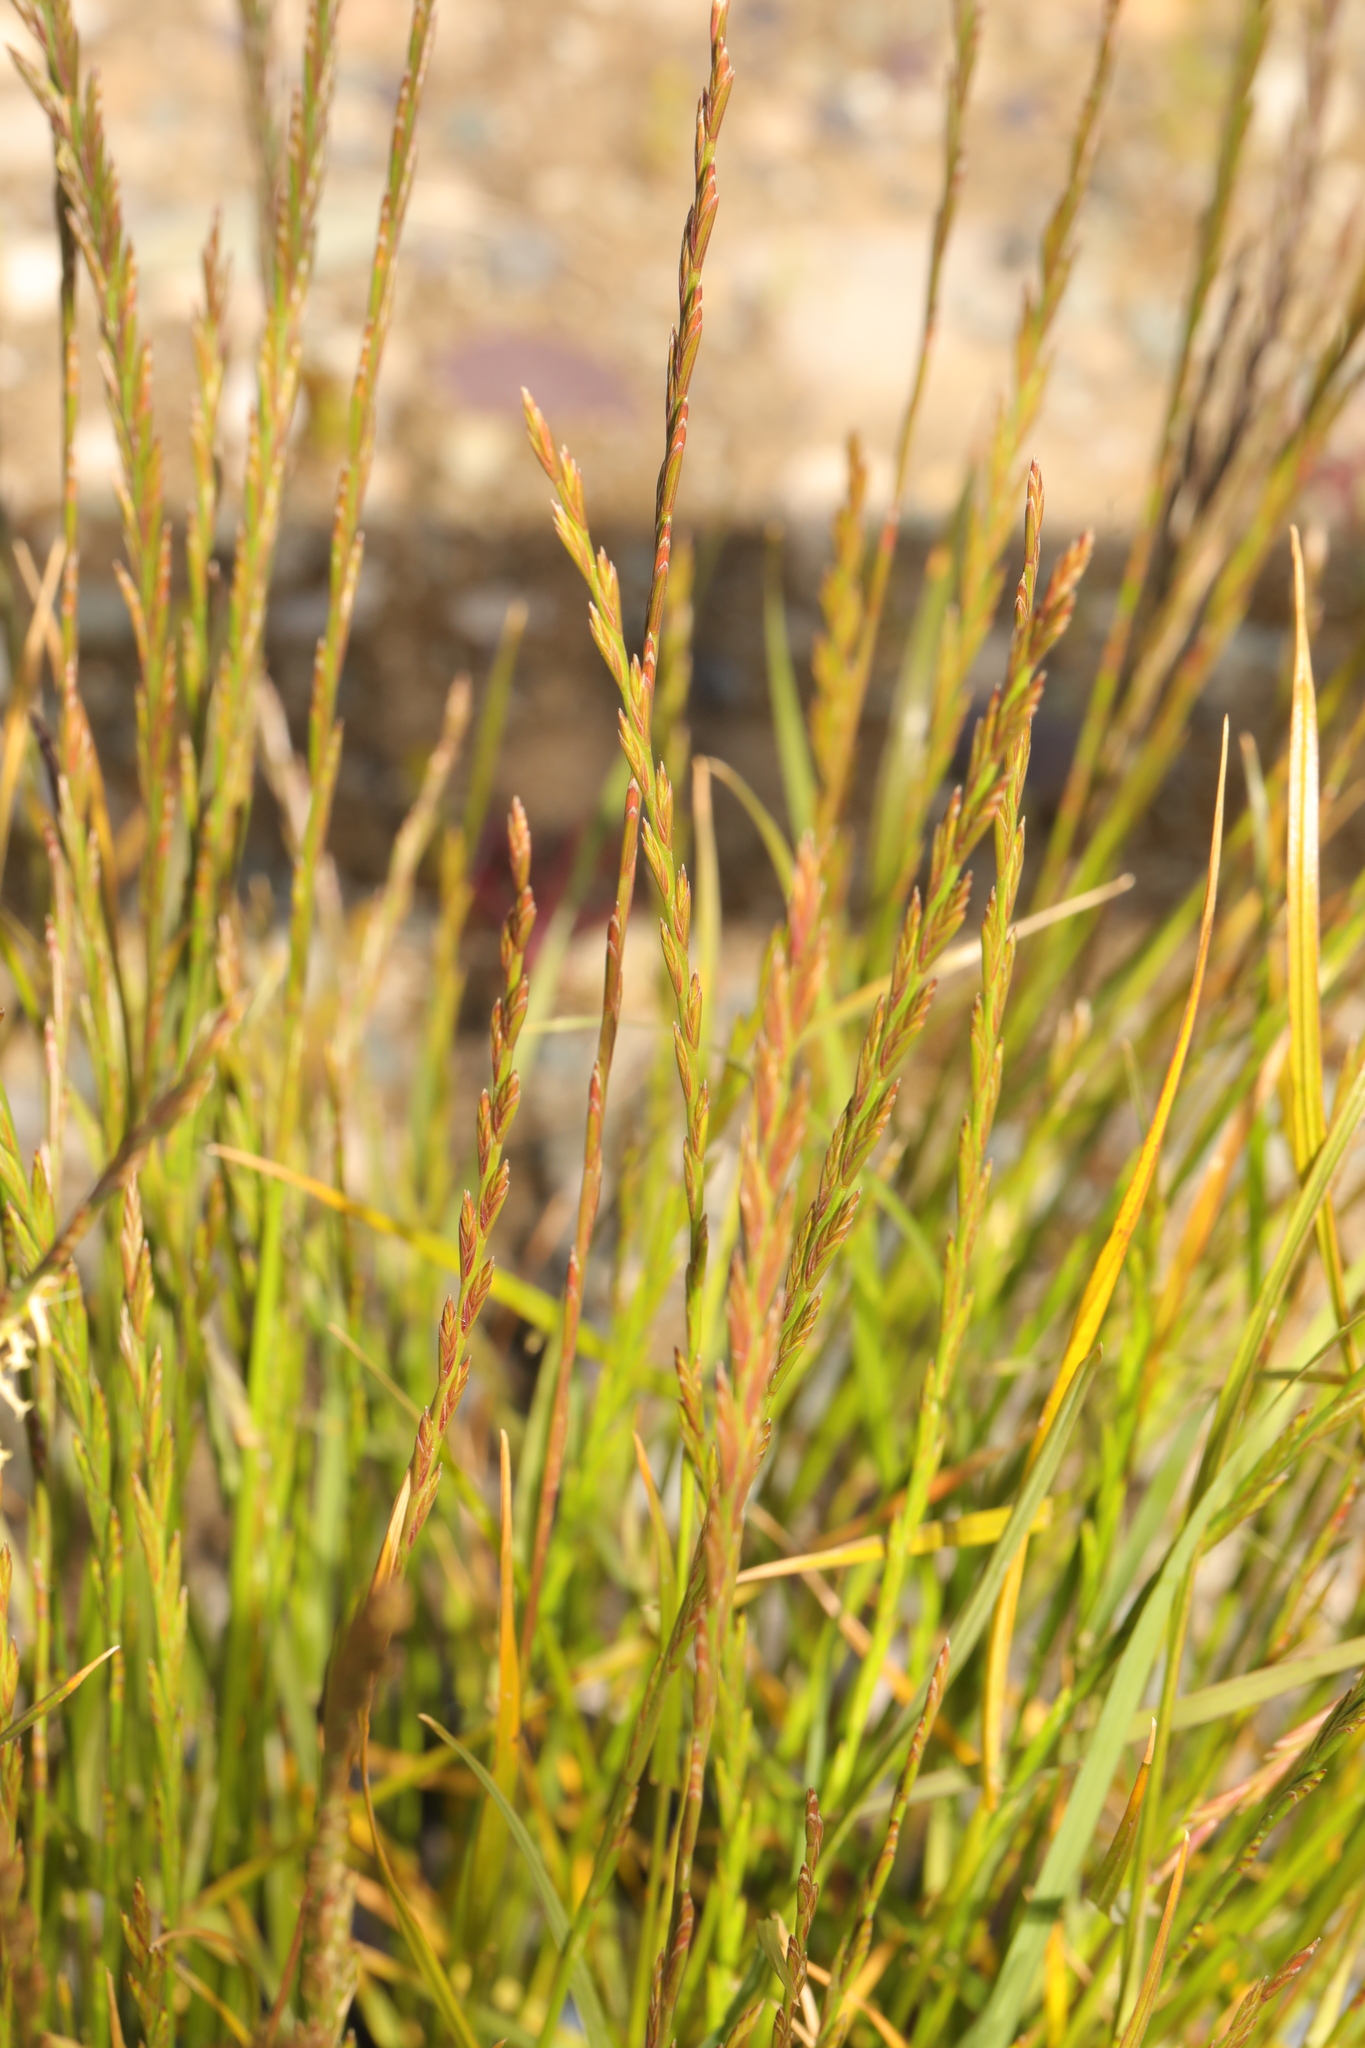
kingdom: Plantae
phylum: Tracheophyta
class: Liliopsida
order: Poales
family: Poaceae
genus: Lolium
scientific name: Lolium perenne
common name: Perennial ryegrass
